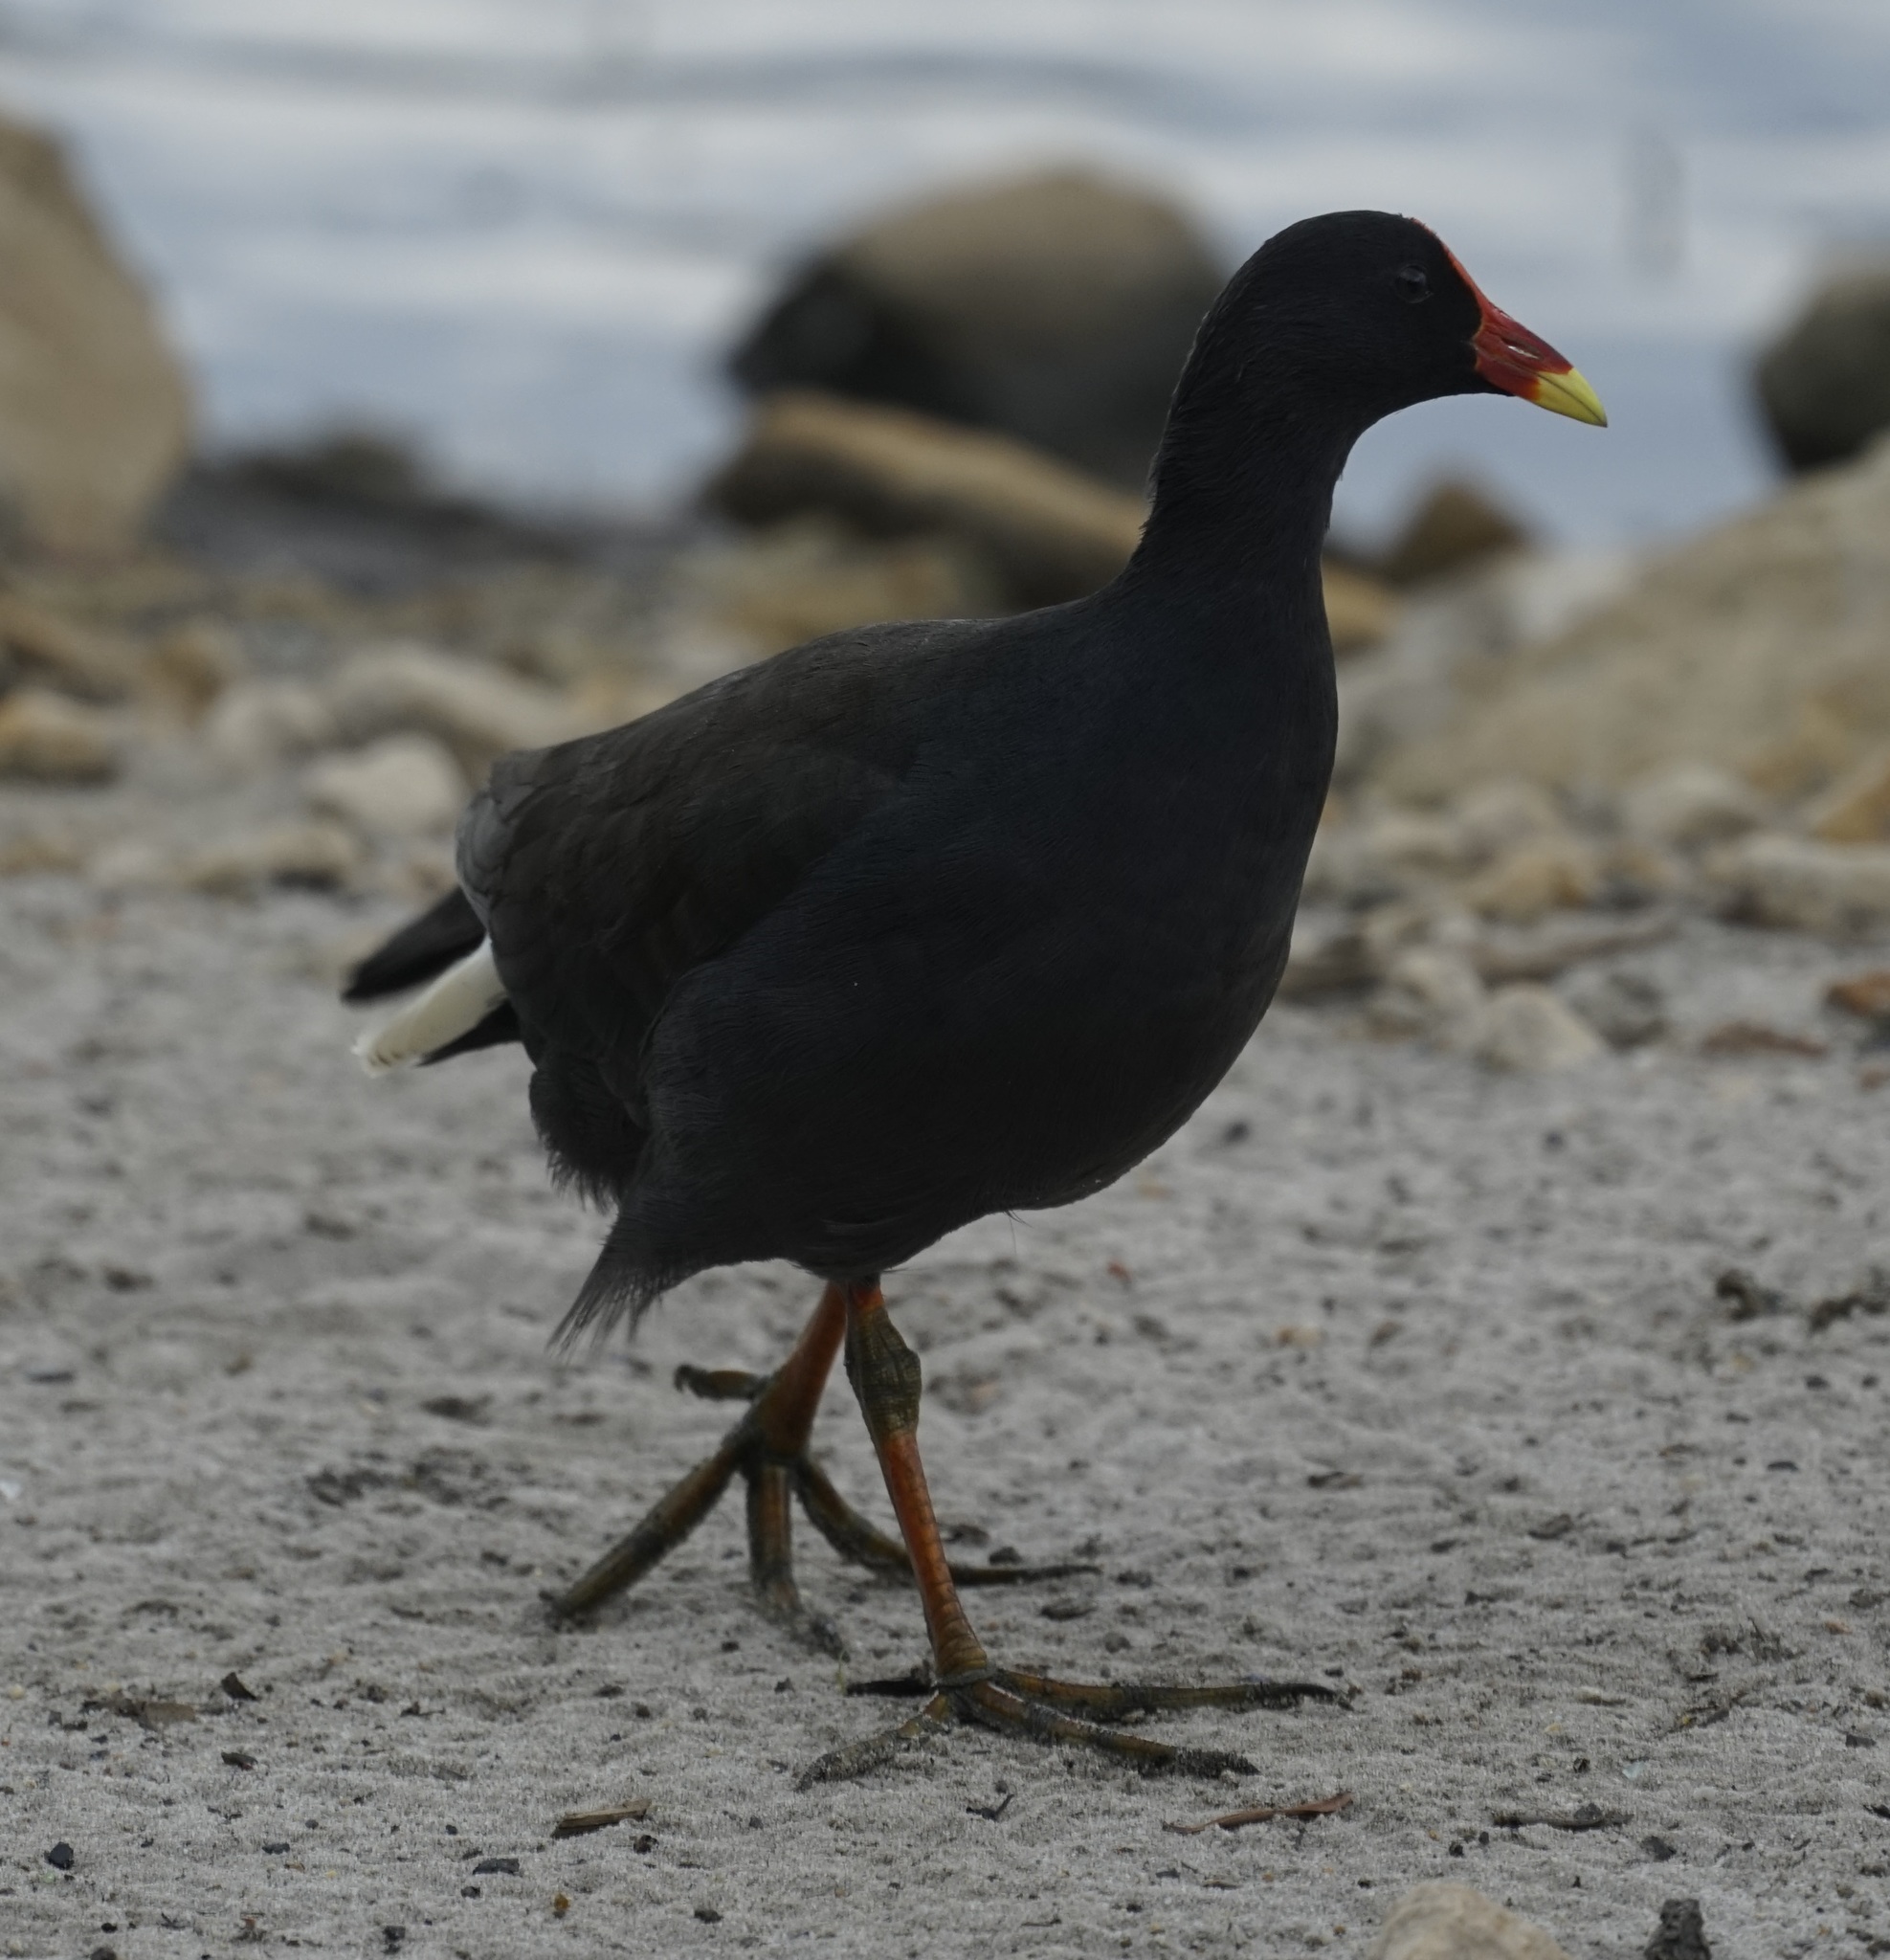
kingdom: Animalia
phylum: Chordata
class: Aves
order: Gruiformes
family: Rallidae
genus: Gallinula
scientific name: Gallinula tenebrosa
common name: Dusky moorhen
